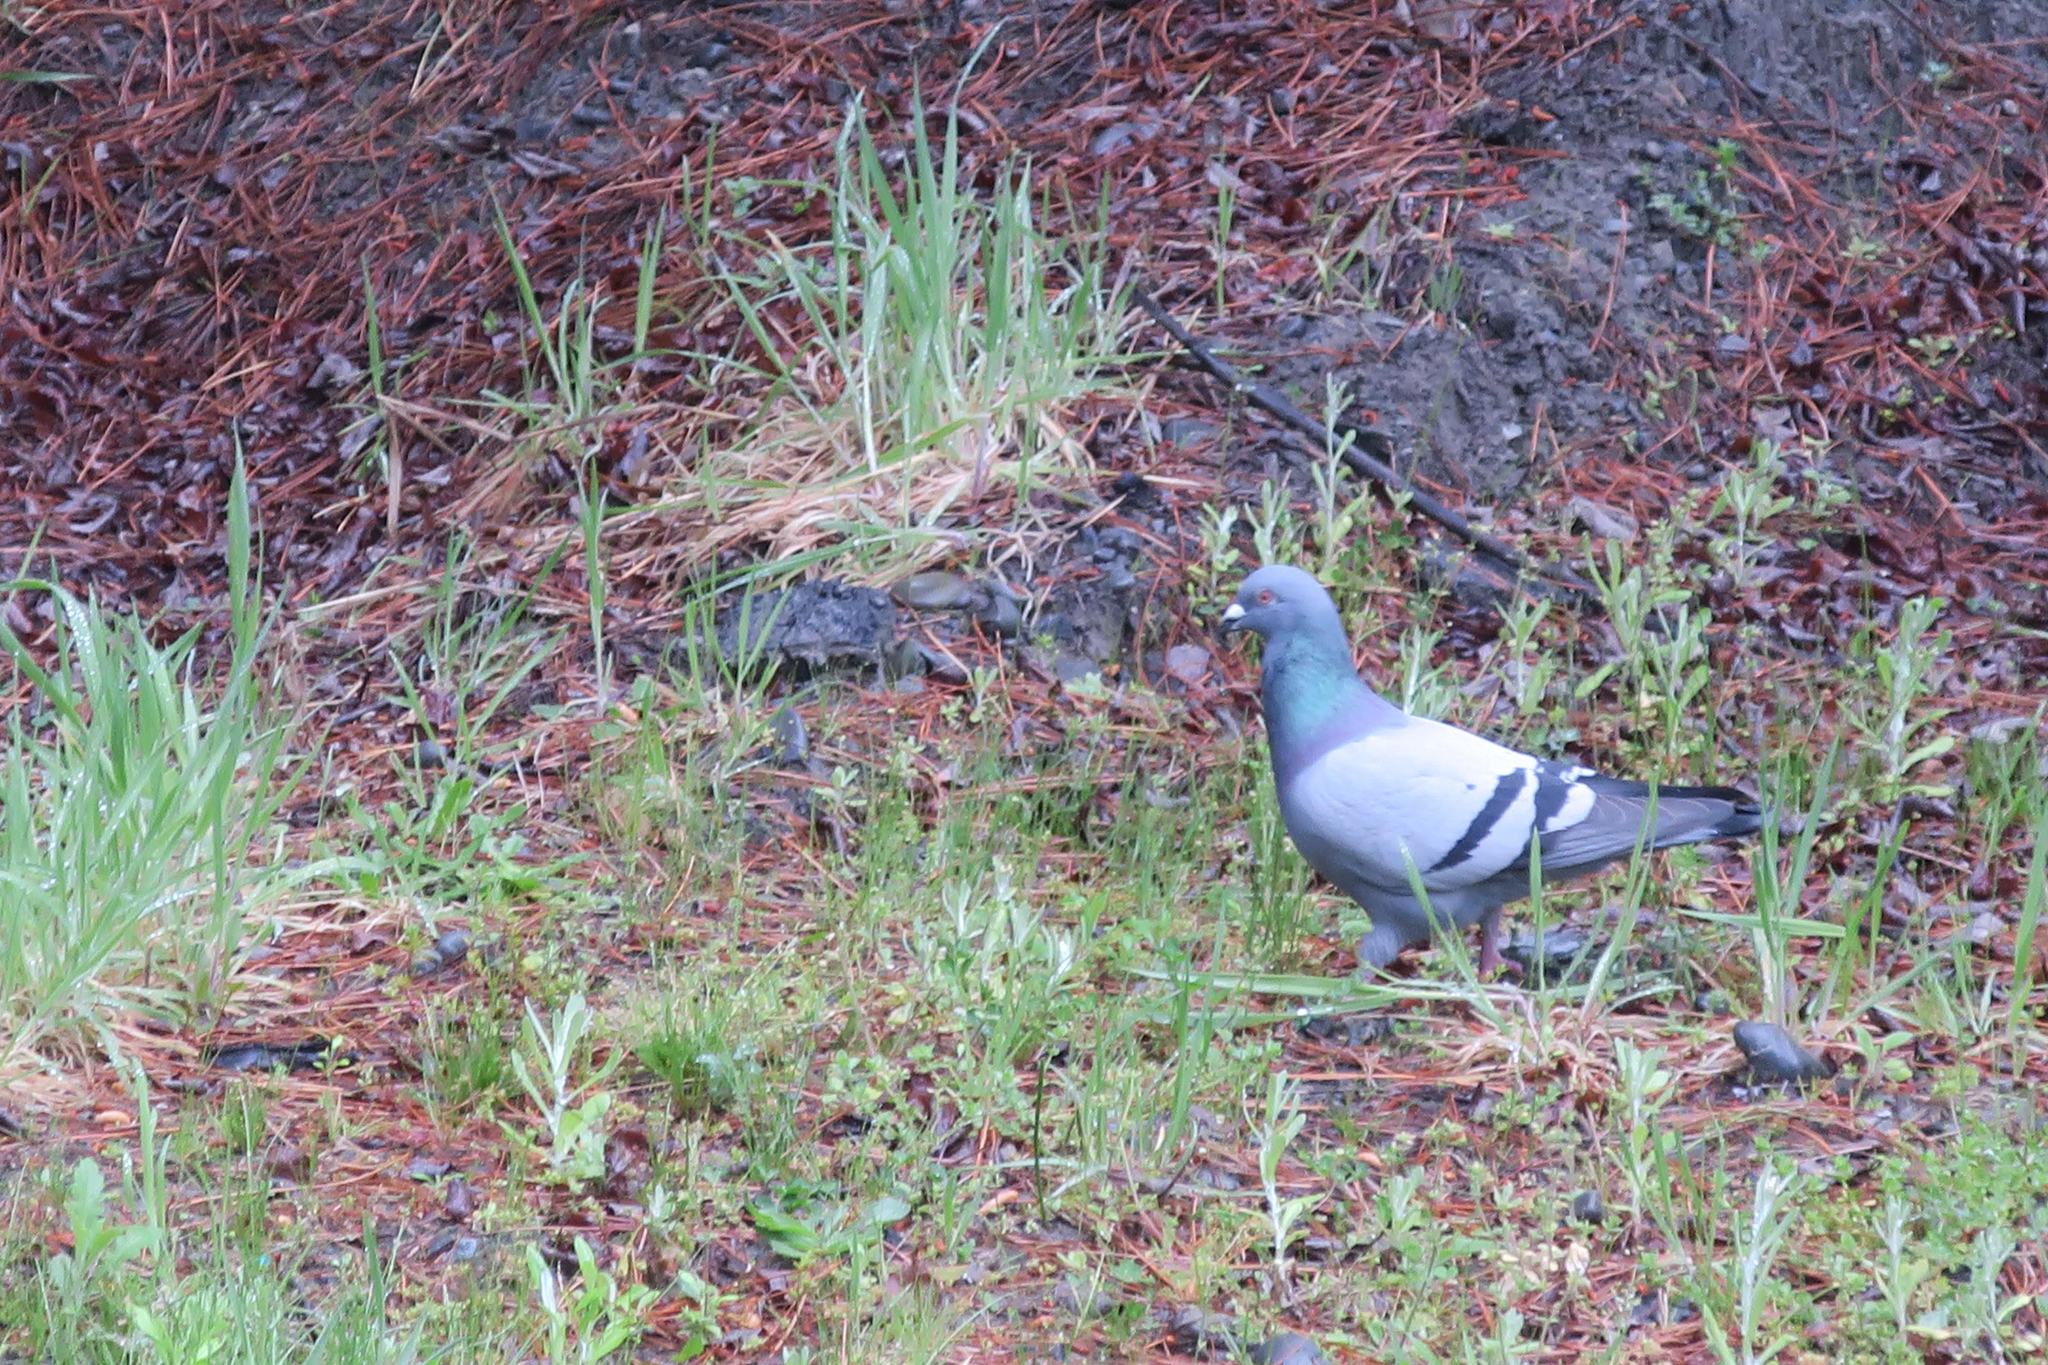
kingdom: Animalia
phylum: Chordata
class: Aves
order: Columbiformes
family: Columbidae
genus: Columba
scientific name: Columba livia
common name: Rock pigeon
